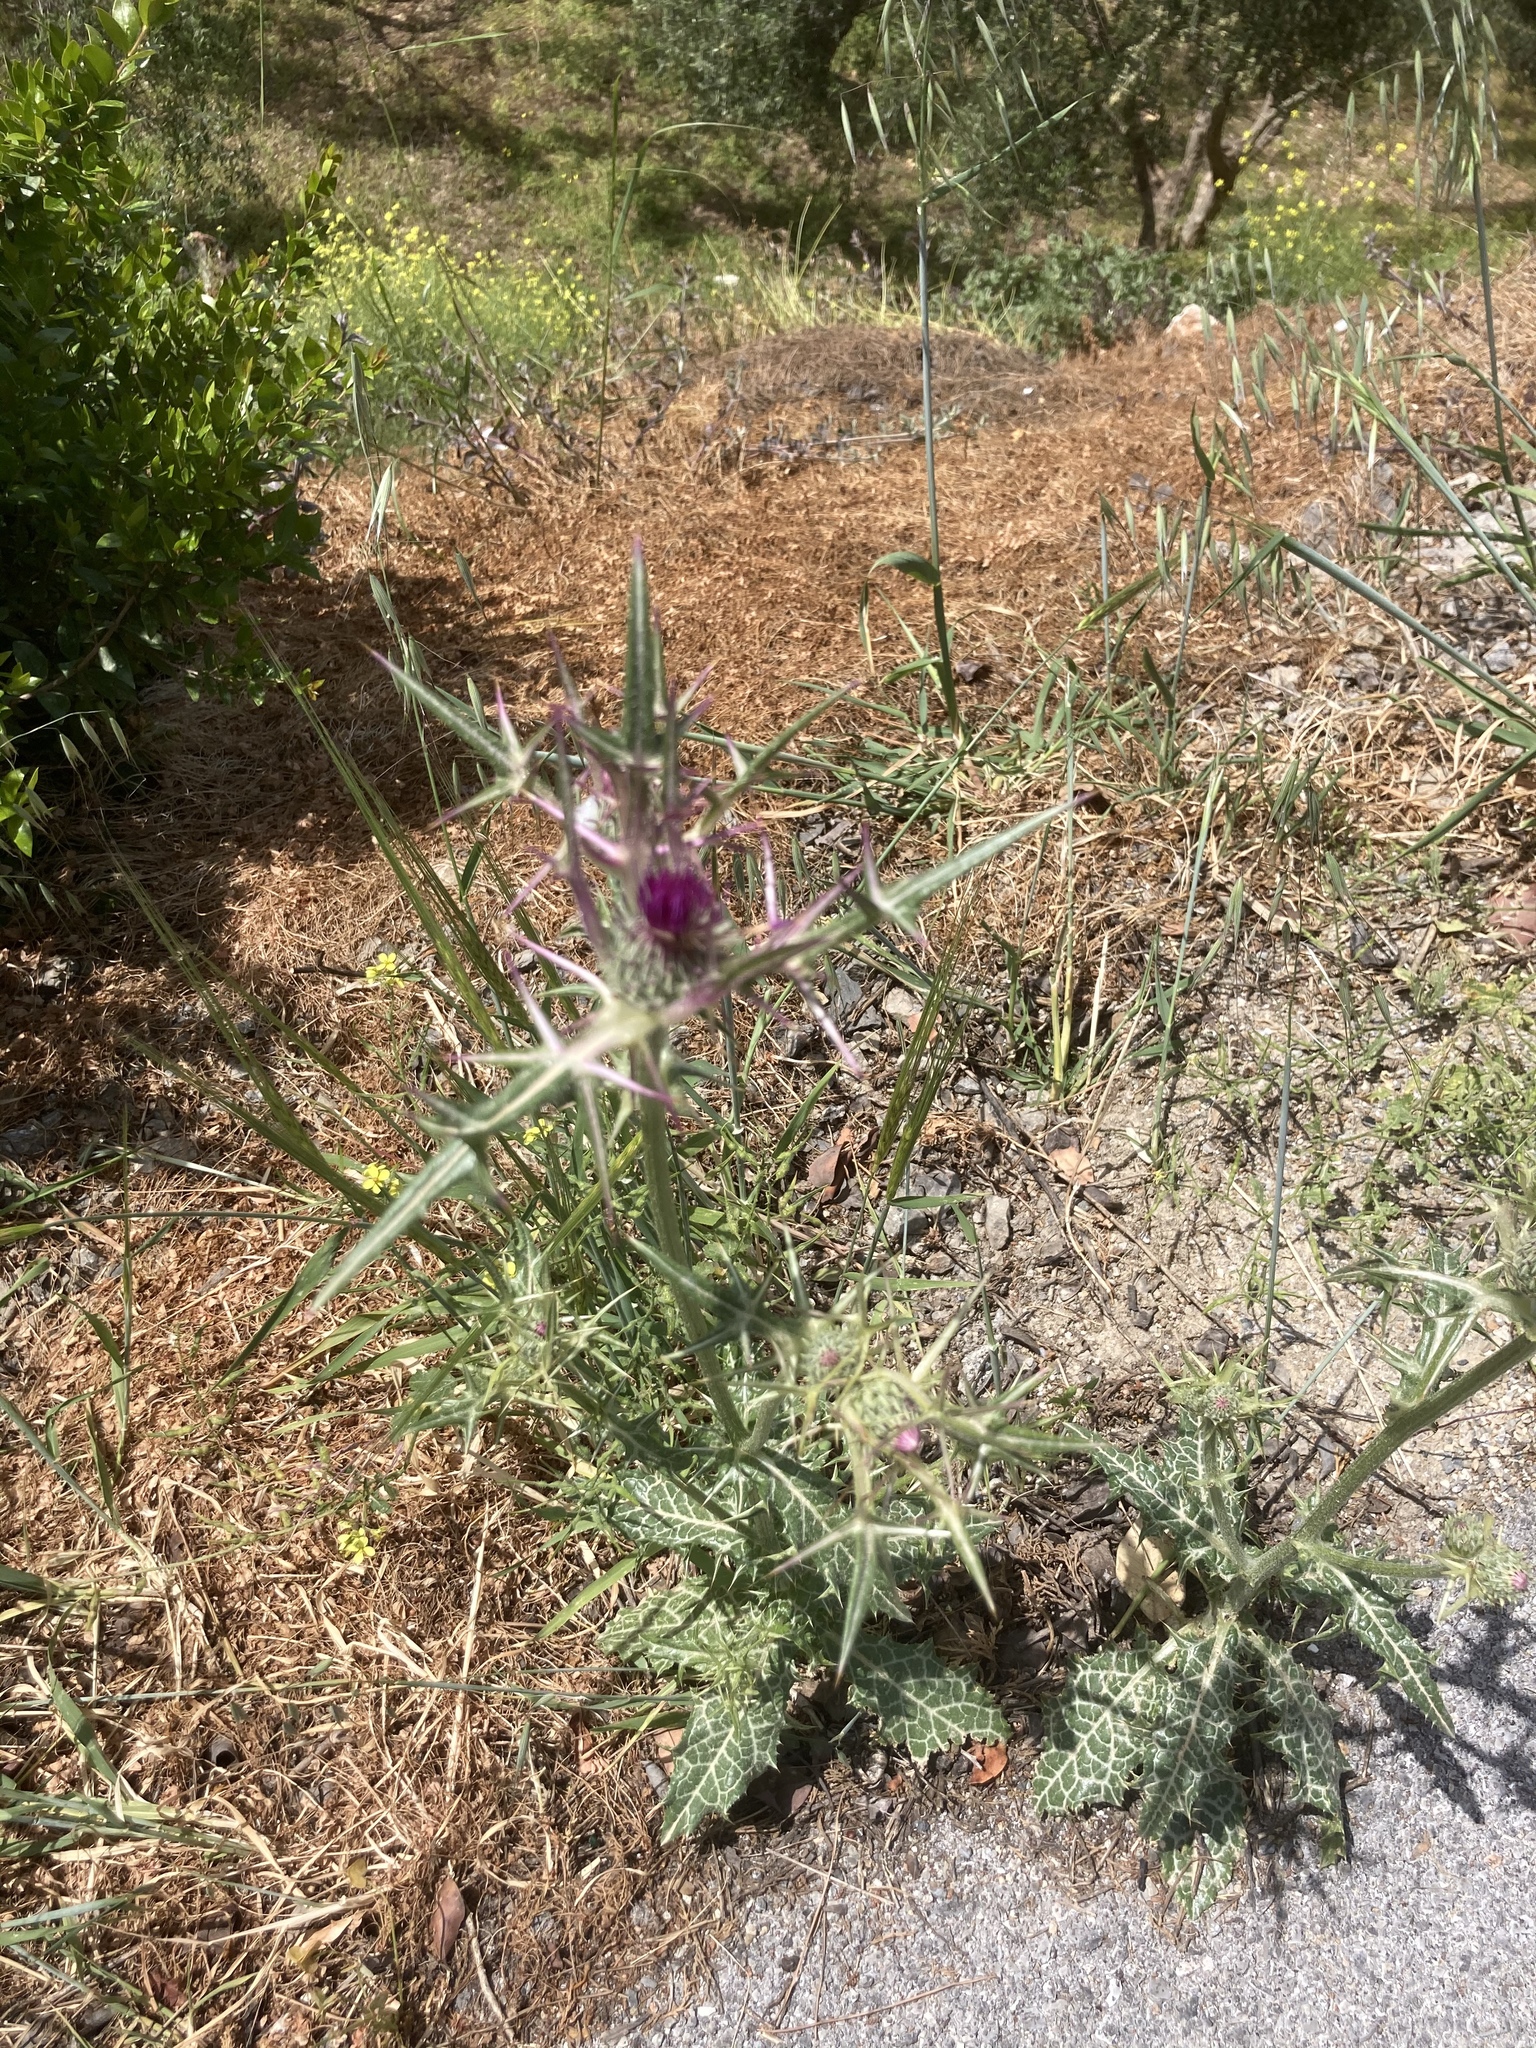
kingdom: Plantae
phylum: Tracheophyta
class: Magnoliopsida
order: Asterales
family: Asteraceae
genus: Notobasis
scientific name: Notobasis syriaca
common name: Syrian thistle
